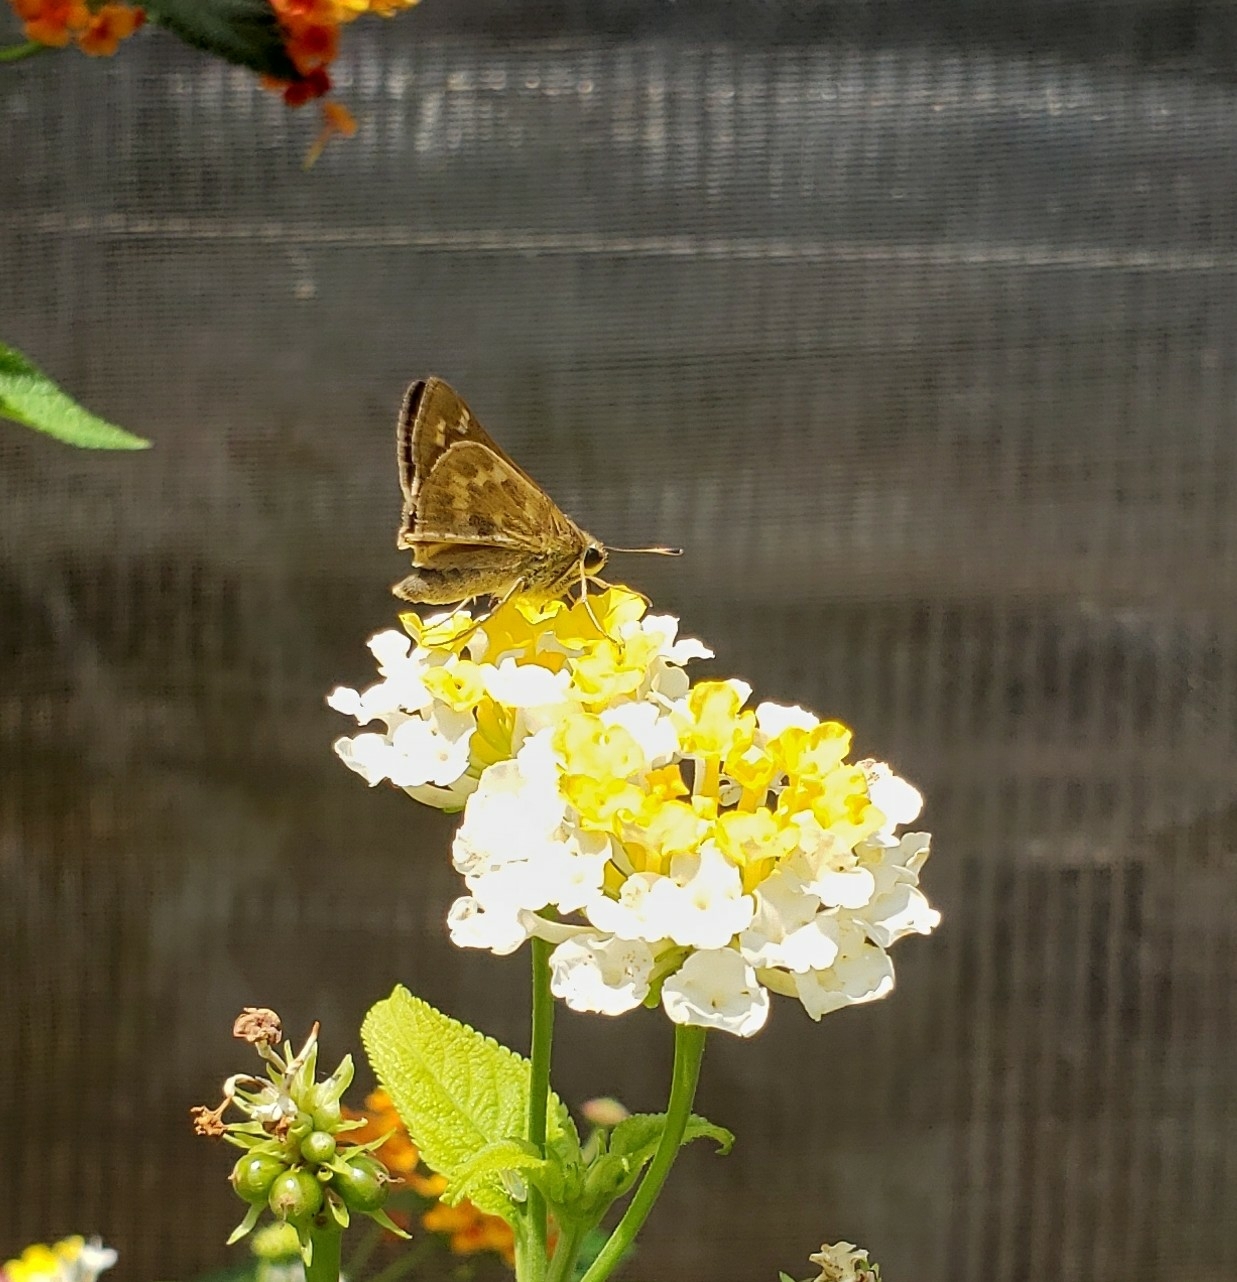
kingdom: Animalia
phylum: Arthropoda
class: Insecta
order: Lepidoptera
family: Hesperiidae
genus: Atalopedes
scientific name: Atalopedes
